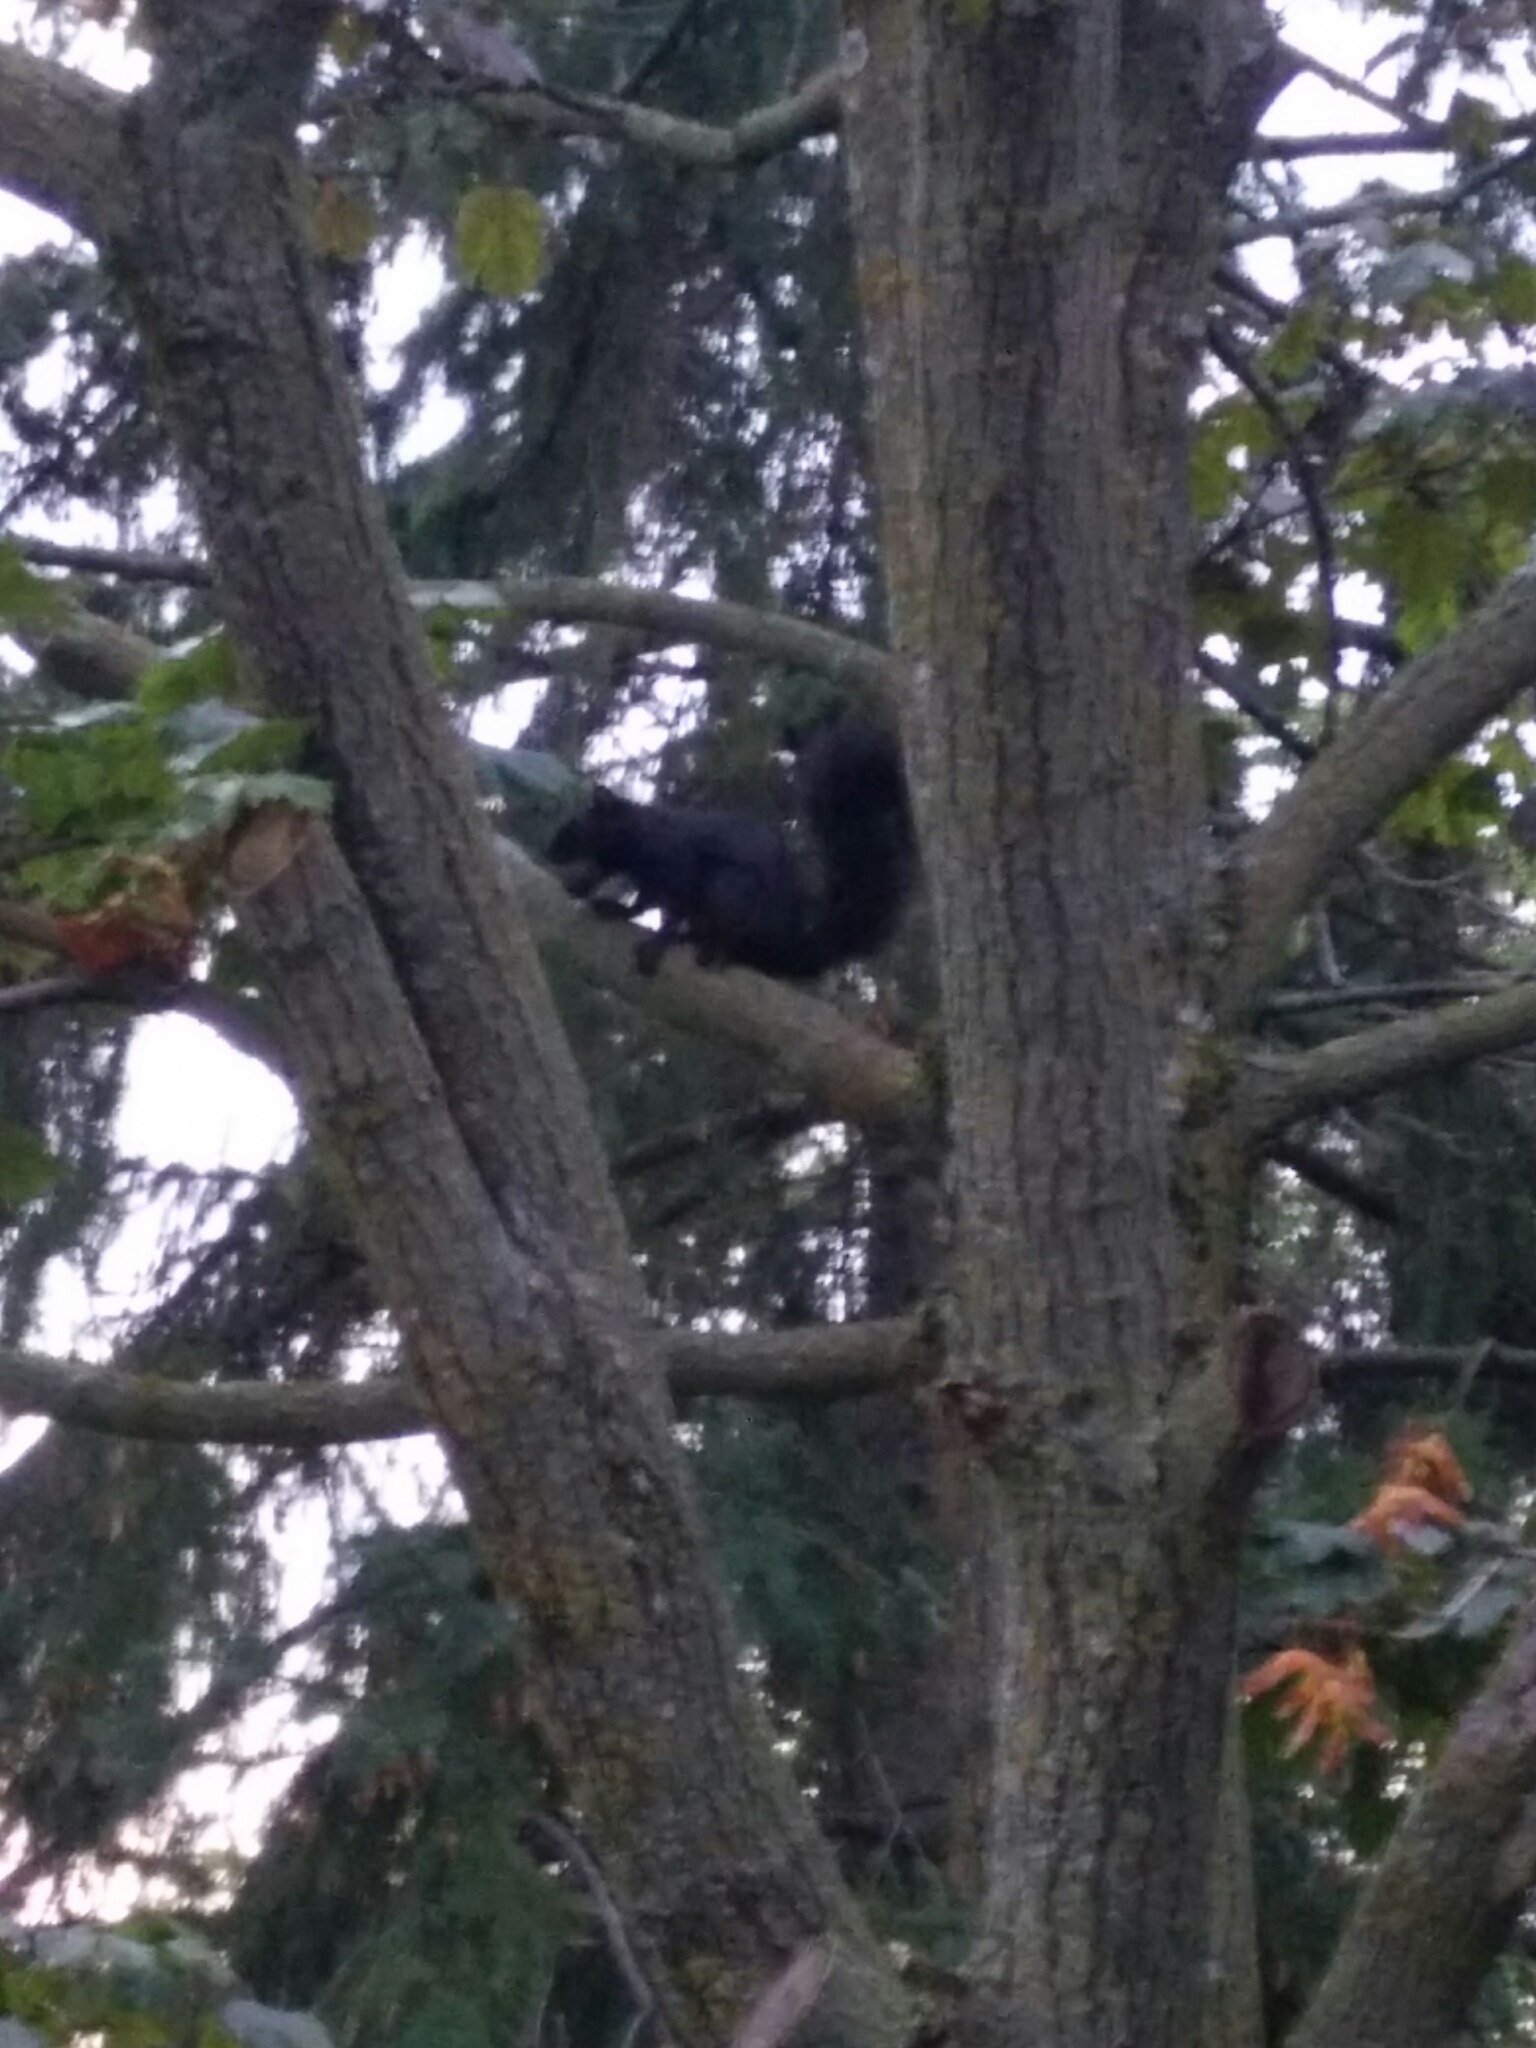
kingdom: Animalia
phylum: Chordata
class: Mammalia
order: Rodentia
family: Sciuridae
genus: Sciurus
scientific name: Sciurus carolinensis
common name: Eastern gray squirrel
